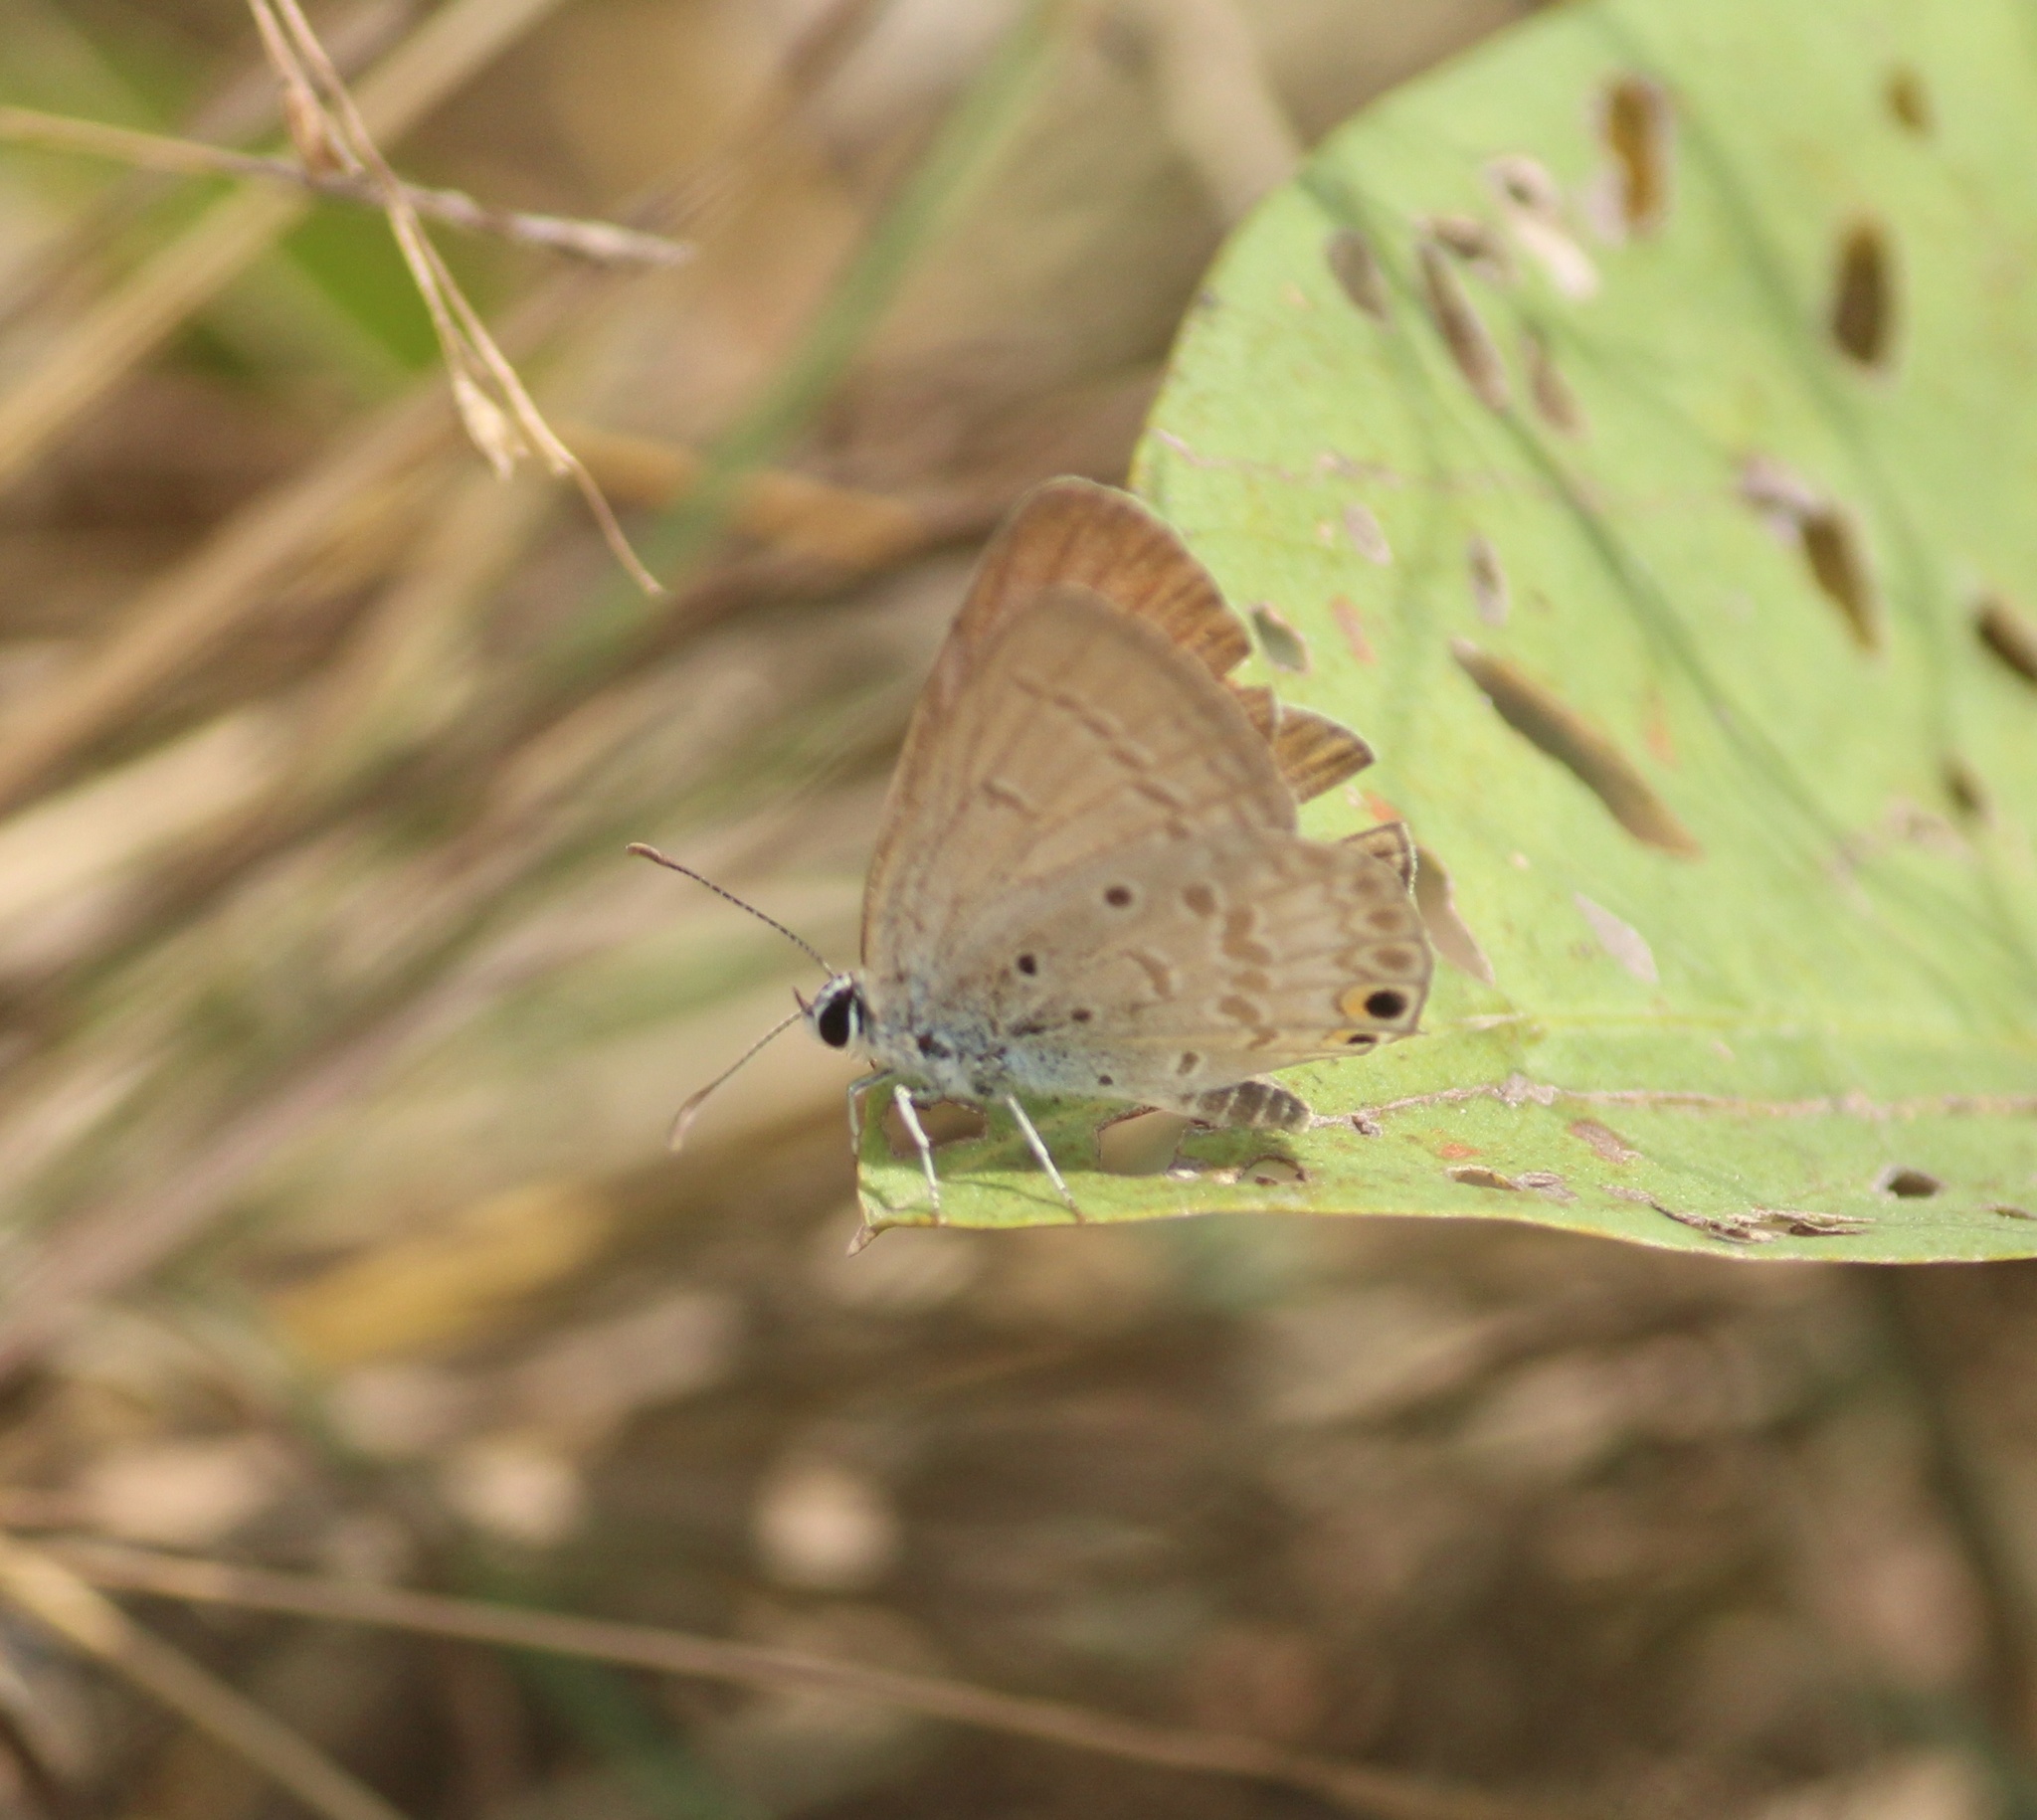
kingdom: Animalia
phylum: Arthropoda
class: Insecta
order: Lepidoptera
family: Lycaenidae
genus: Euchrysops
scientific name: Euchrysops cnejus
